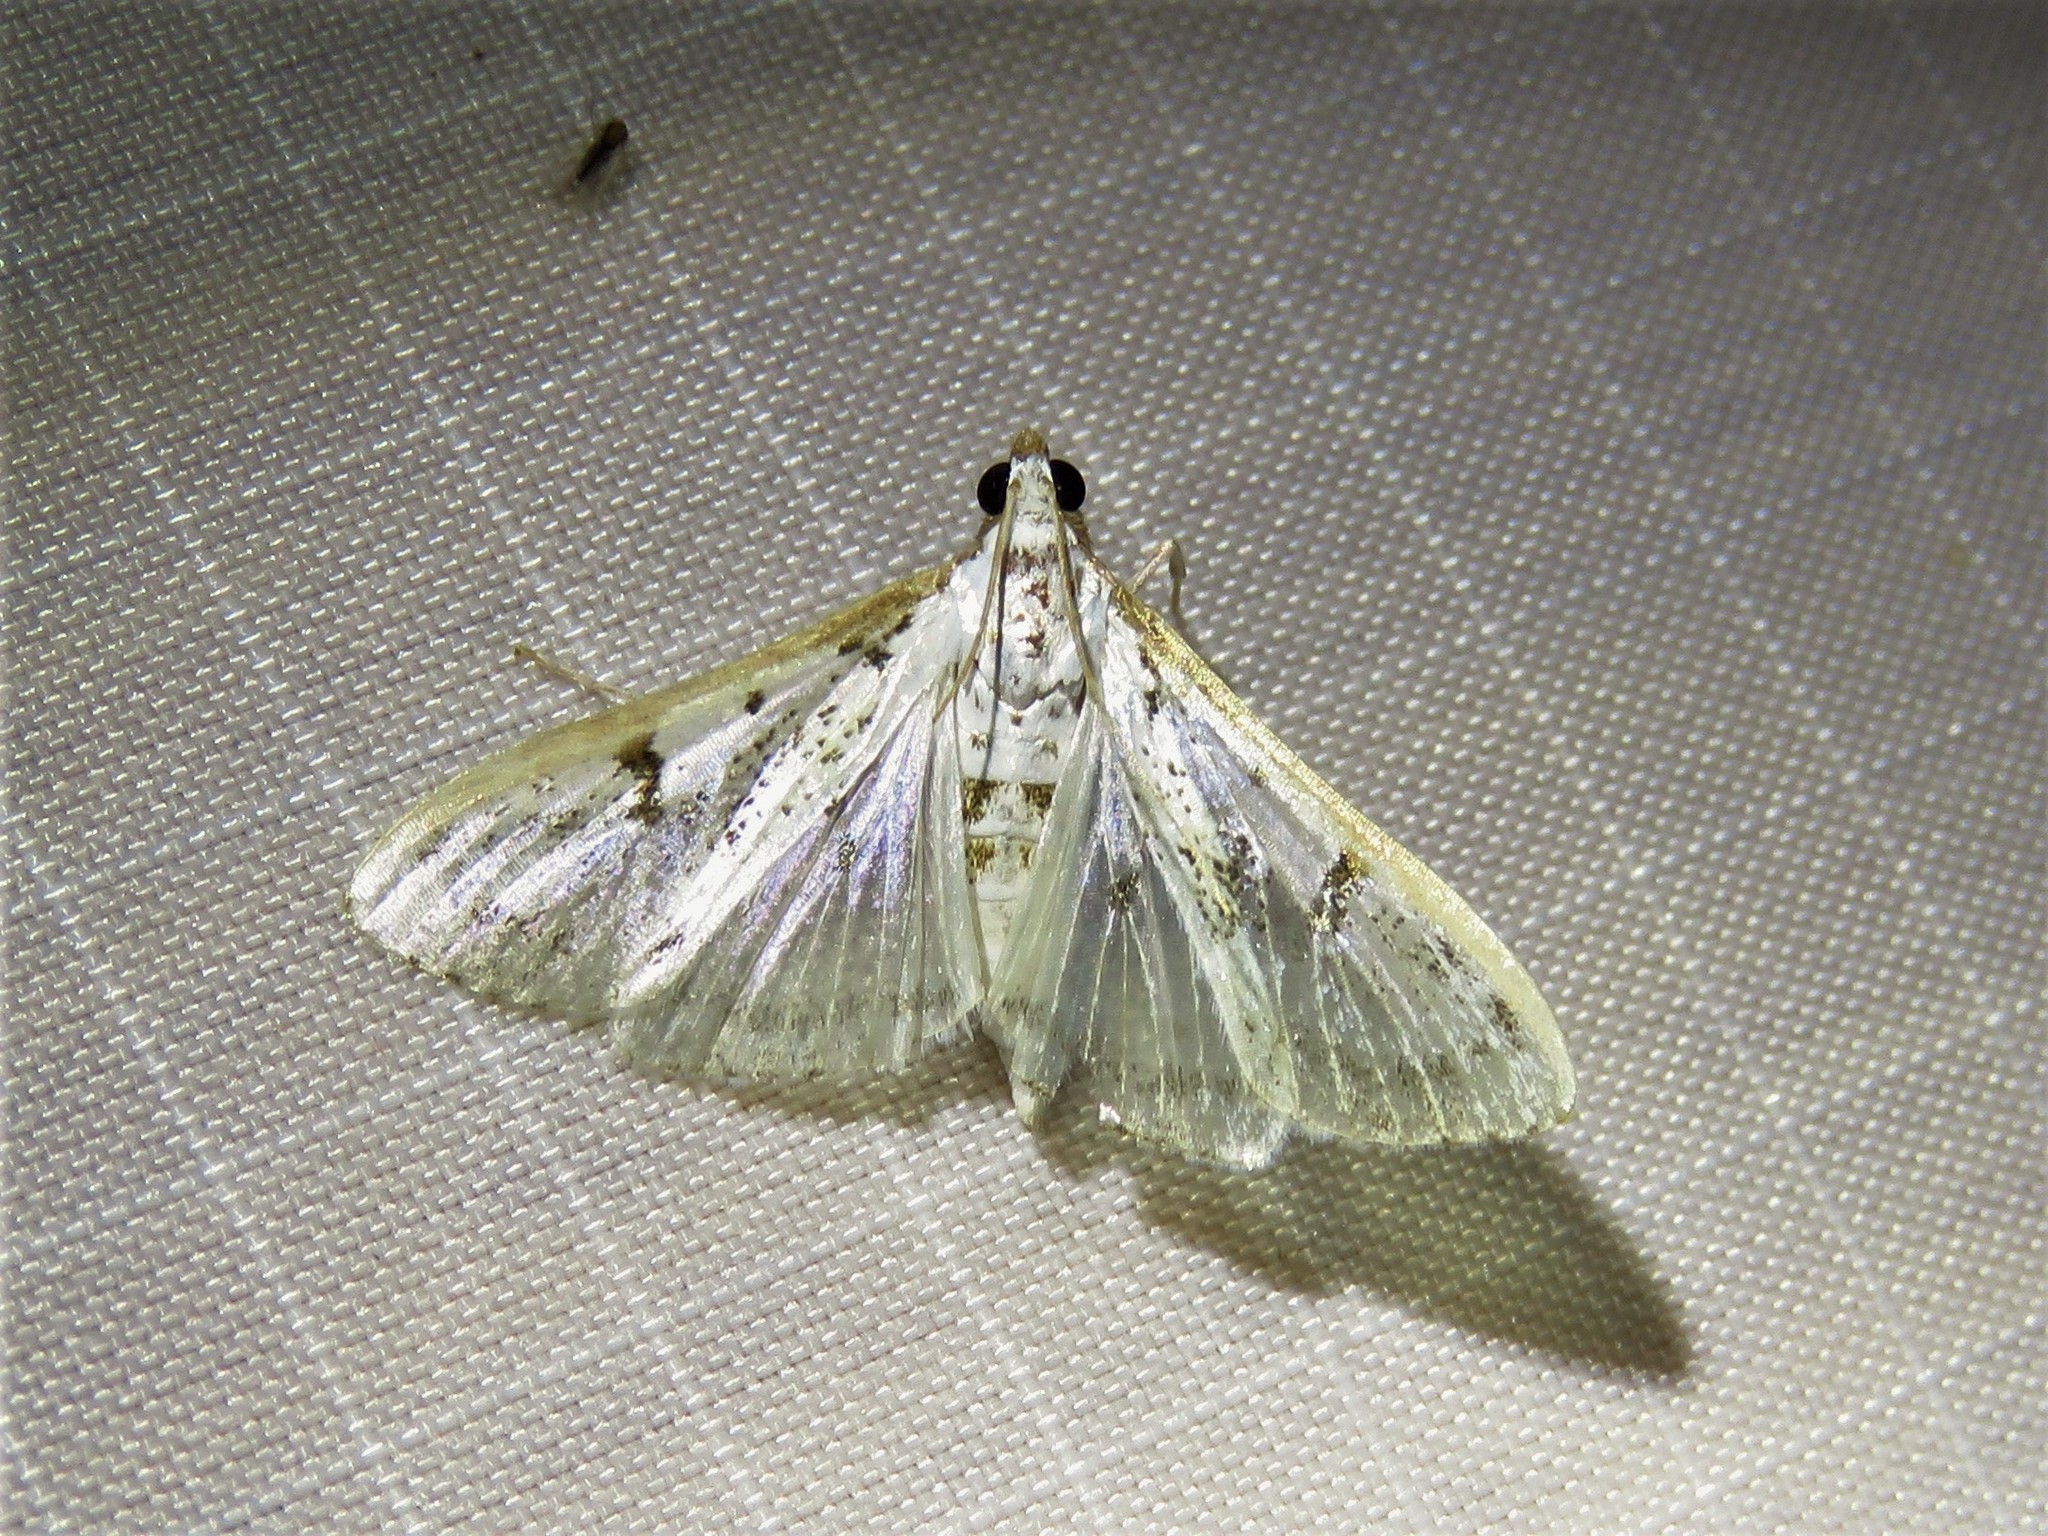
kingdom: Animalia
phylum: Arthropoda
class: Insecta
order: Lepidoptera
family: Crambidae
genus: Palpita
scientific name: Palpita gracilalis
